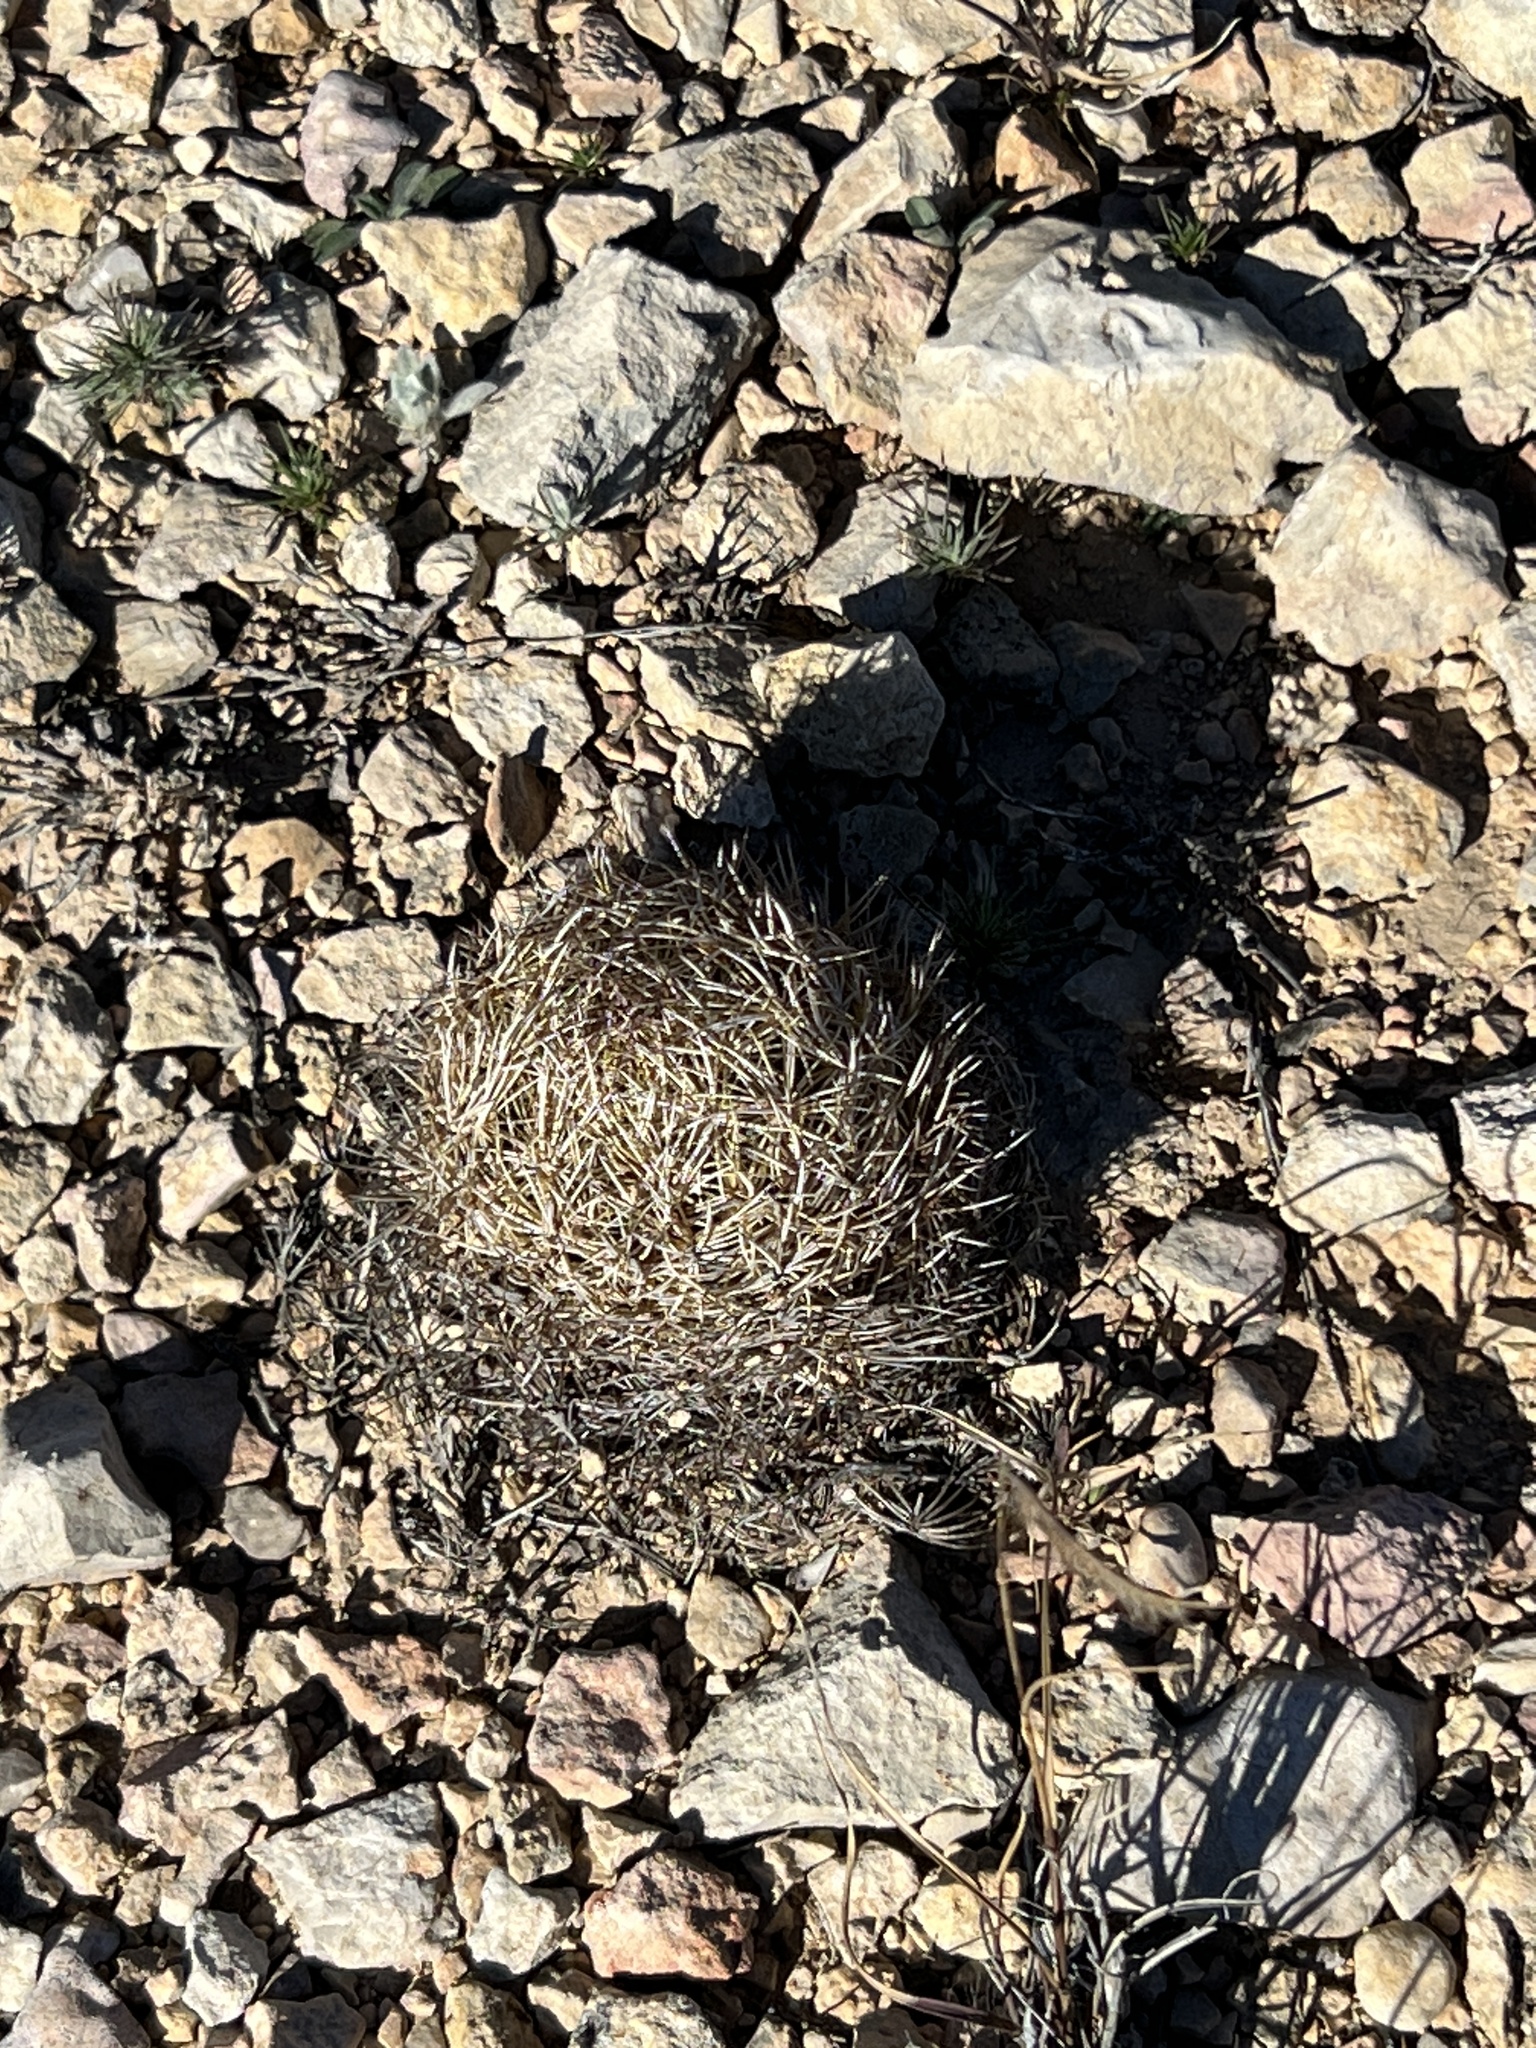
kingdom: Plantae
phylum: Tracheophyta
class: Magnoliopsida
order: Caryophyllales
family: Cactaceae
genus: Coryphantha
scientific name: Coryphantha echinus
